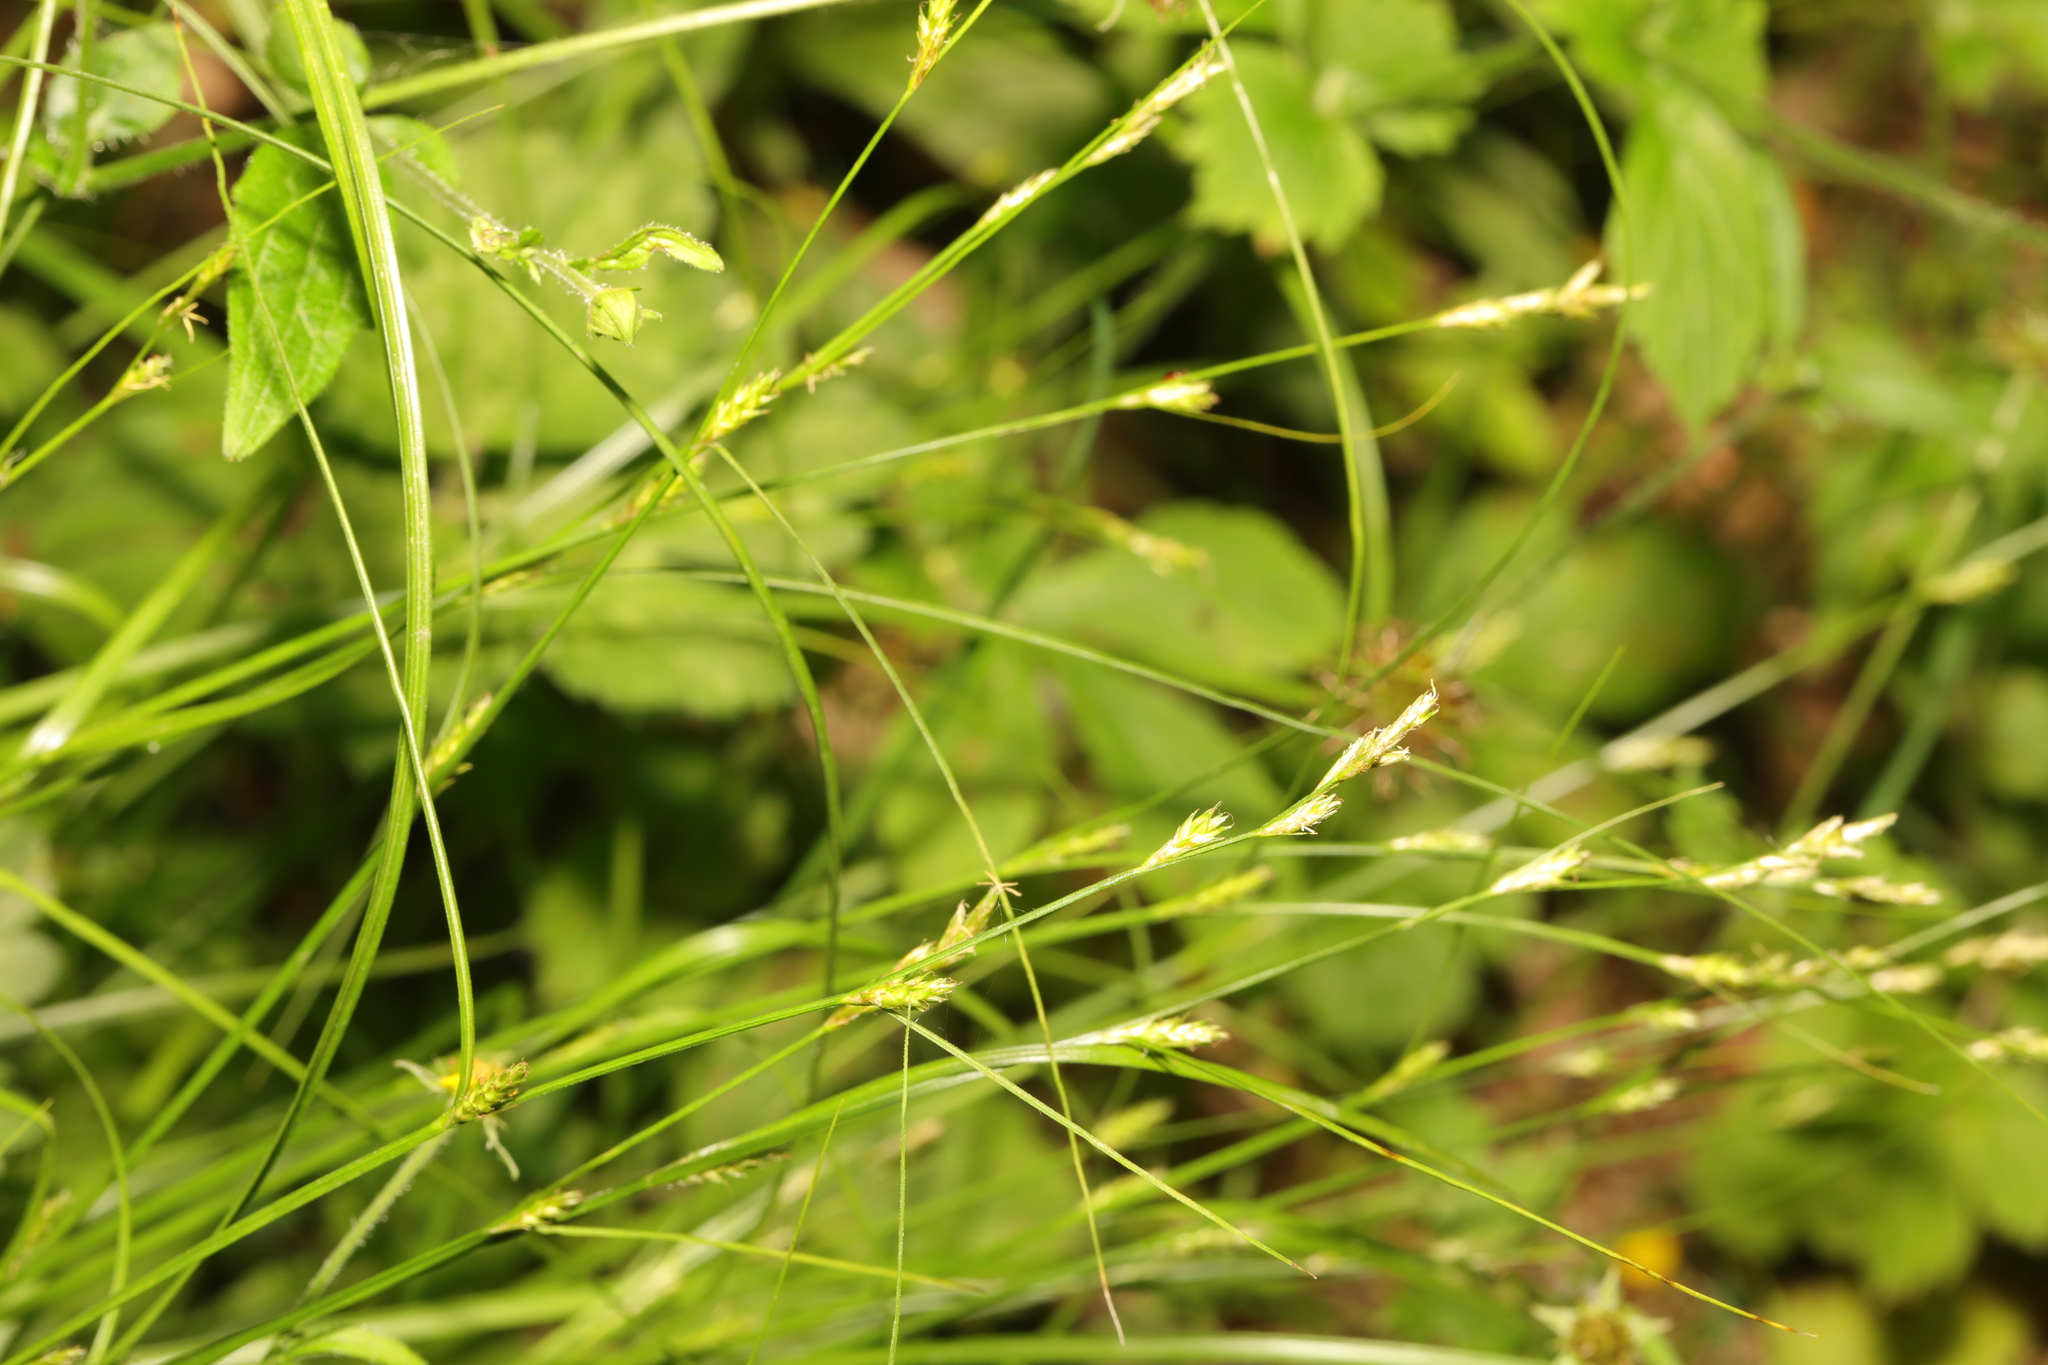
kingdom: Plantae
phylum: Tracheophyta
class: Liliopsida
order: Poales
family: Cyperaceae
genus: Carex
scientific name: Carex remota
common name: Remote sedge
